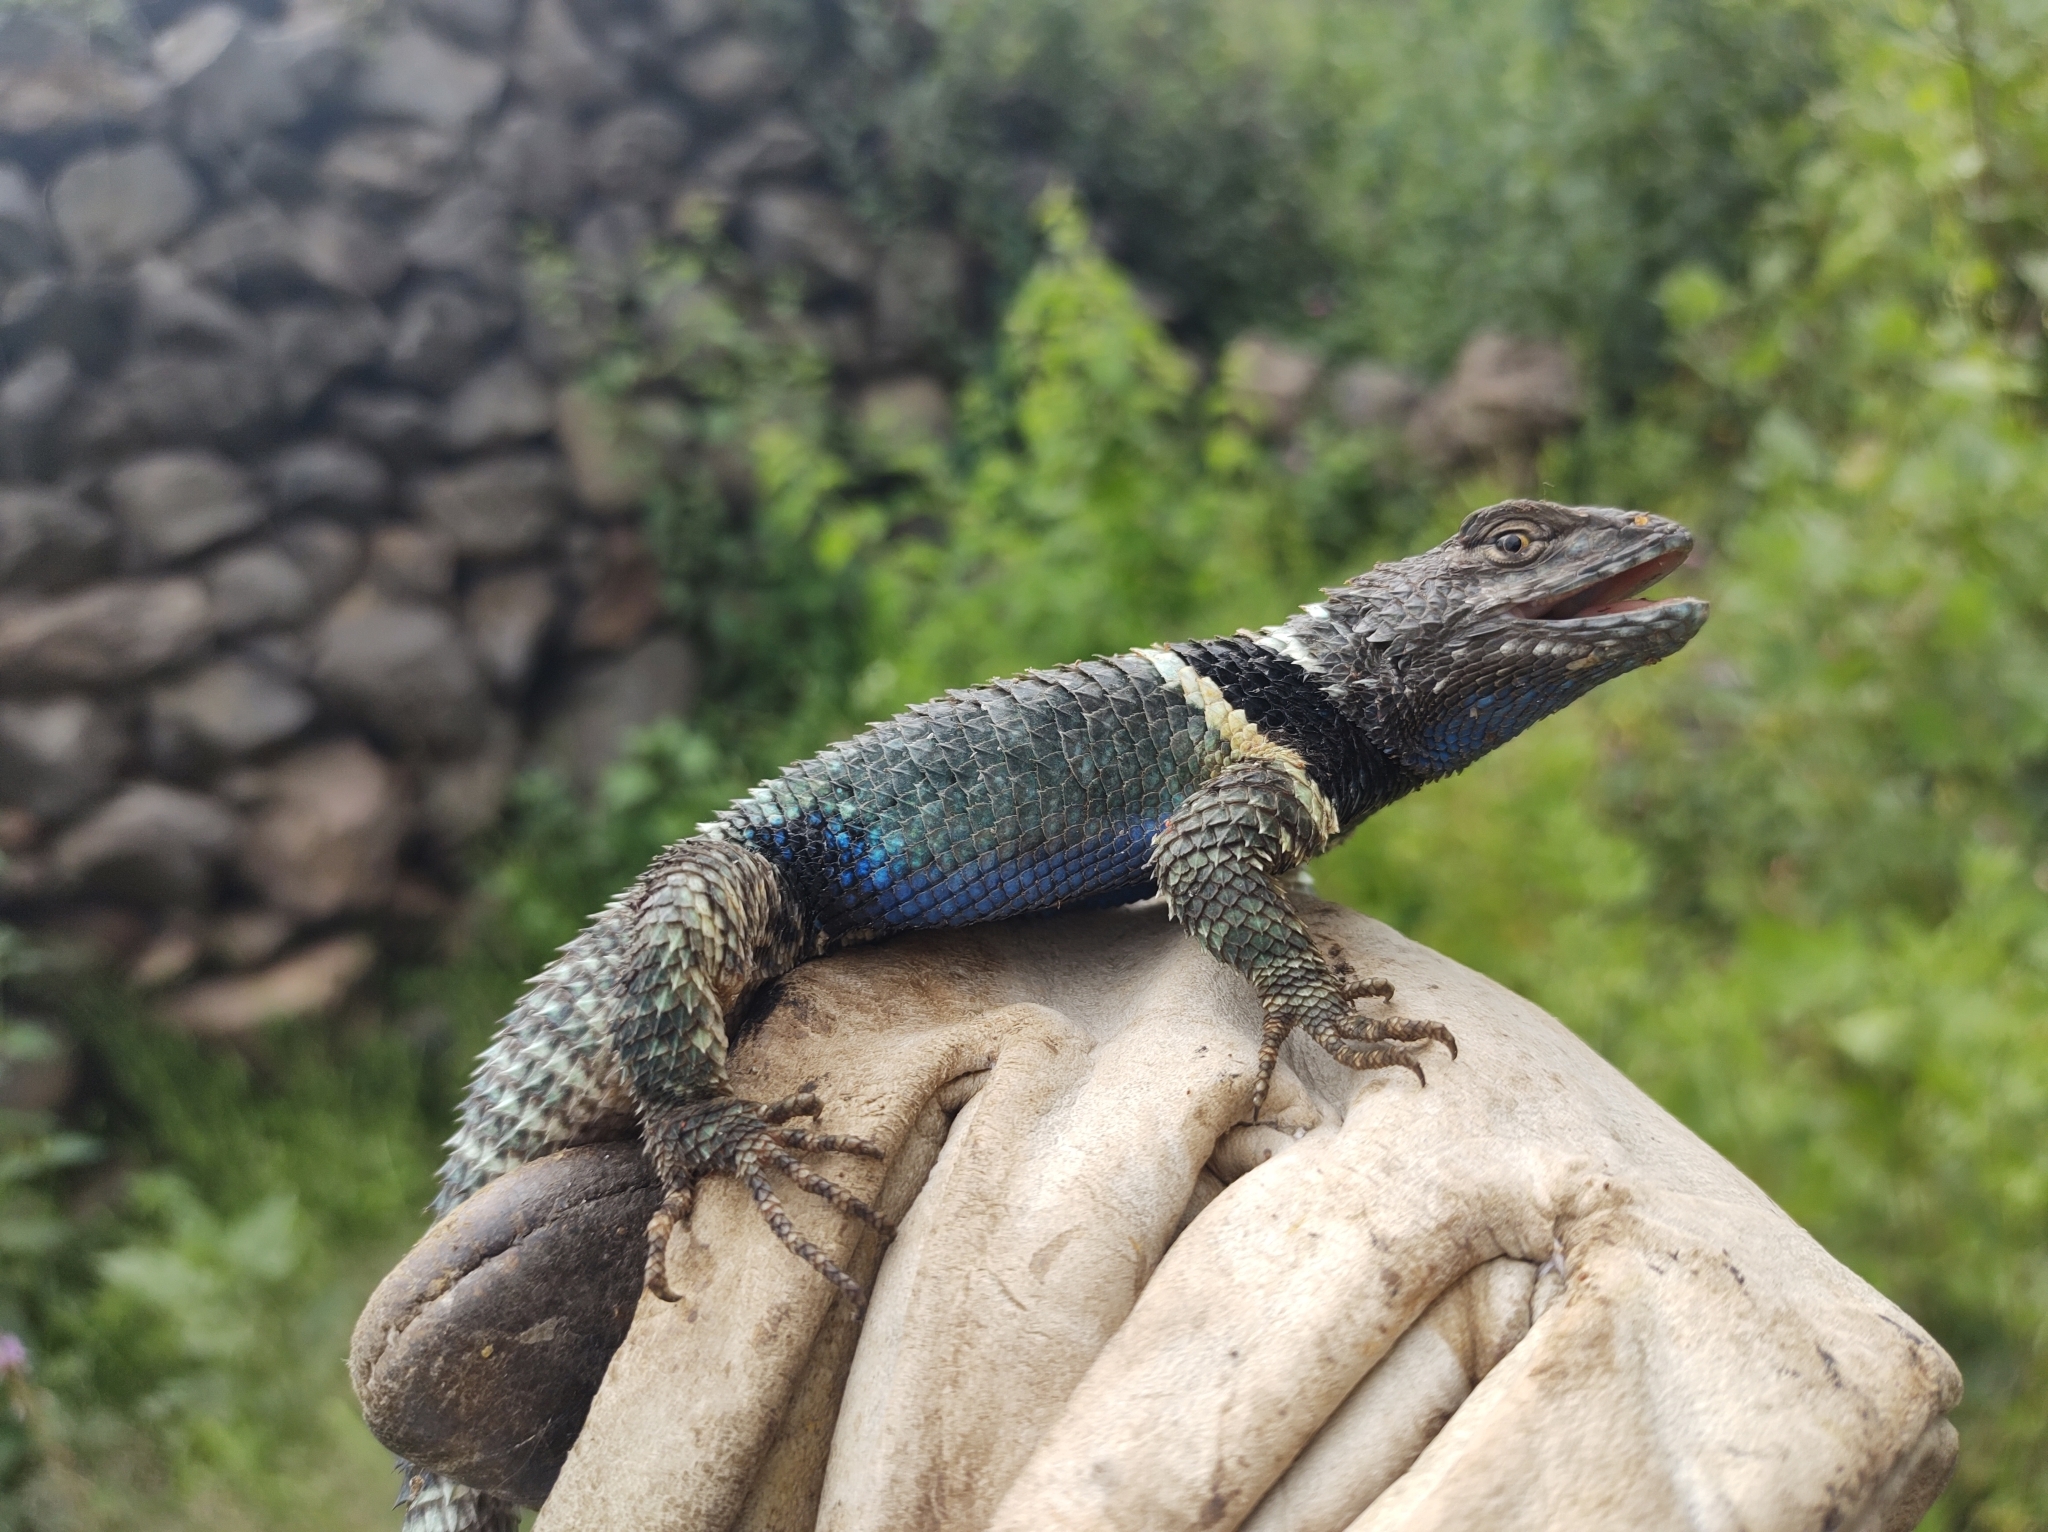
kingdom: Animalia
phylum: Chordata
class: Squamata
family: Phrynosomatidae
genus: Sceloporus
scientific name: Sceloporus torquatus
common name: Central plateau torquate lizard [melanogaster]
